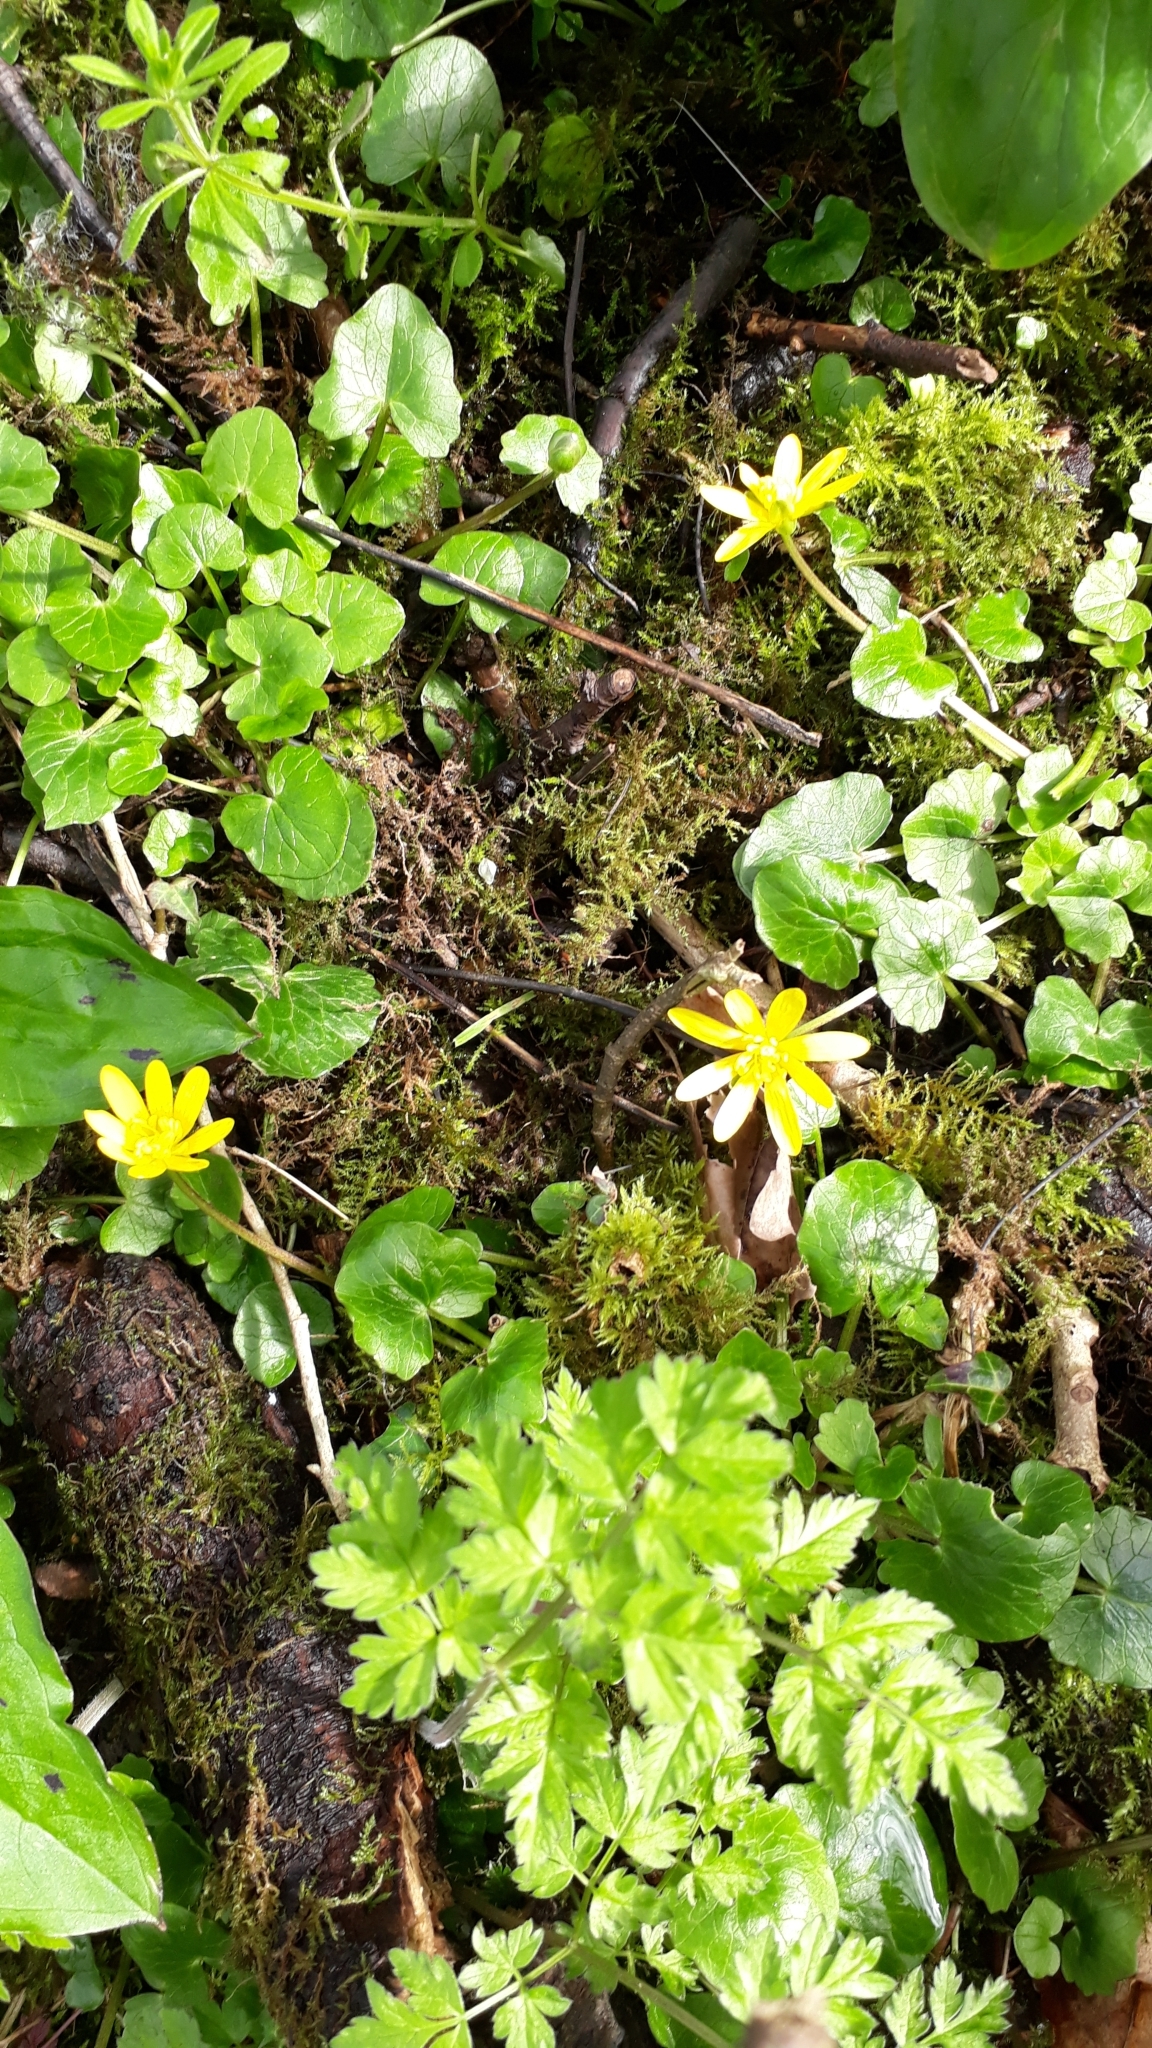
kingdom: Plantae
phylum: Tracheophyta
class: Magnoliopsida
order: Ranunculales
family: Ranunculaceae
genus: Ficaria
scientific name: Ficaria verna
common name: Lesser celandine
